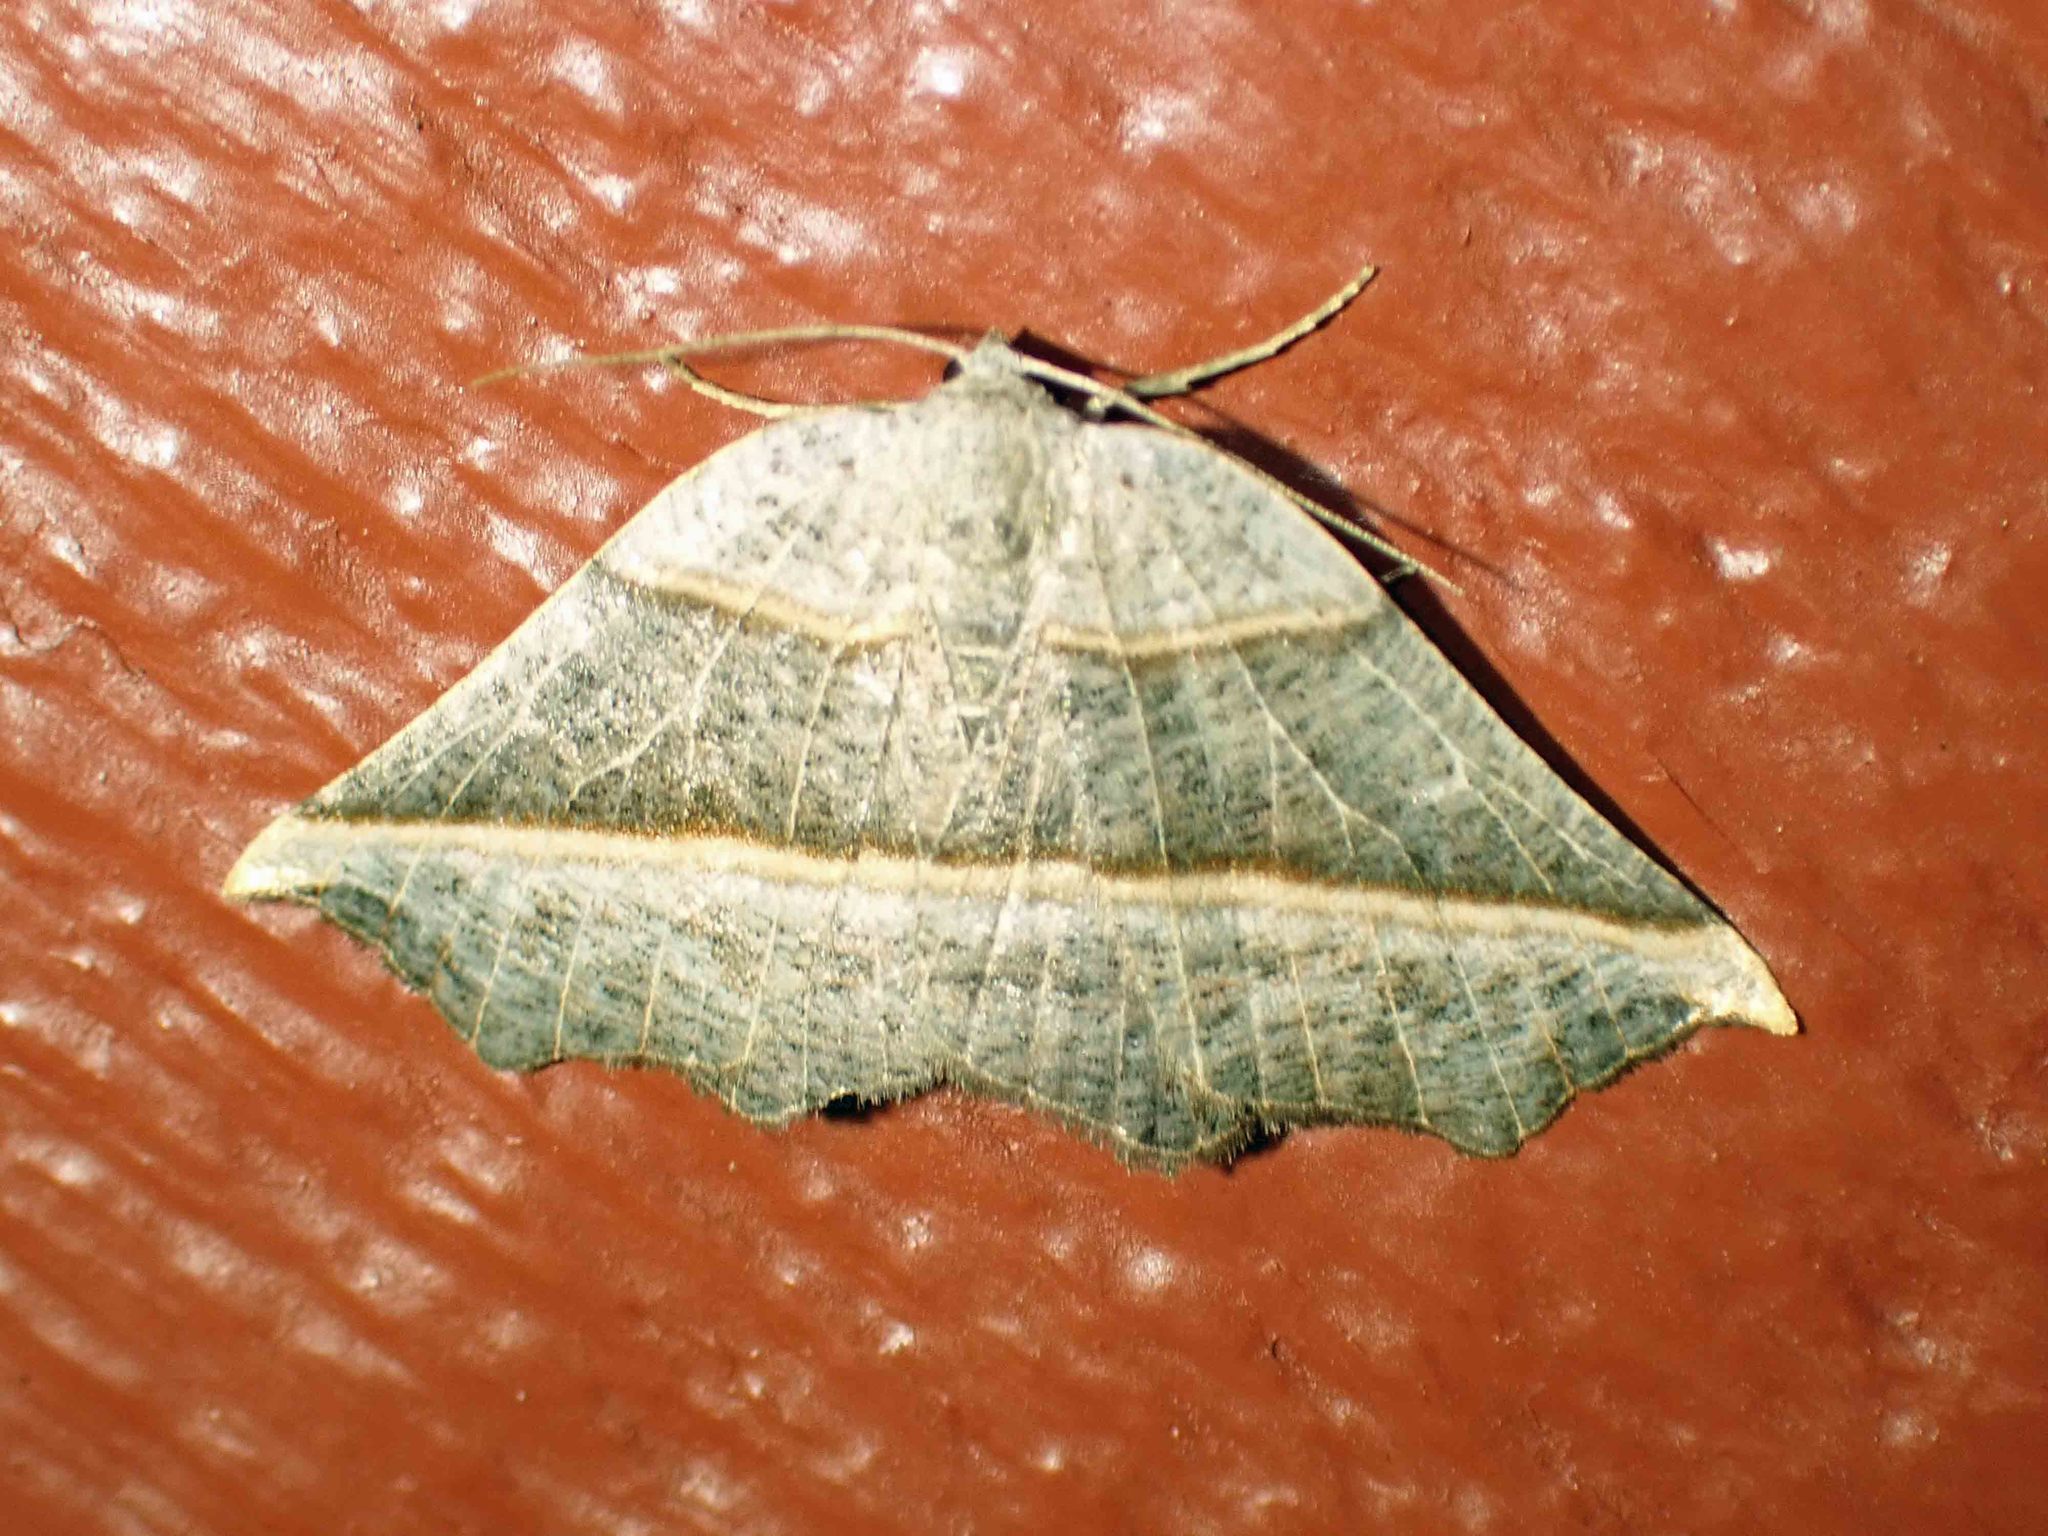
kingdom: Animalia
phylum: Arthropoda
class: Insecta
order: Lepidoptera
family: Geometridae
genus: Metanema
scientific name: Metanema determinata
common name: Dark metanema
